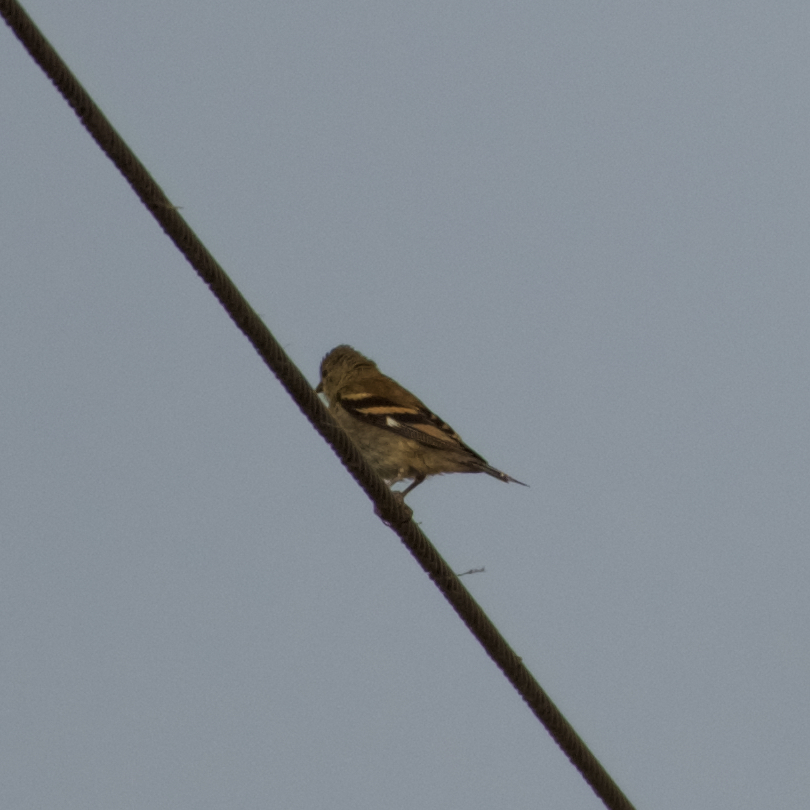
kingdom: Animalia
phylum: Chordata
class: Aves
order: Passeriformes
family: Fringillidae
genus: Spinus
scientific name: Spinus tristis
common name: American goldfinch
